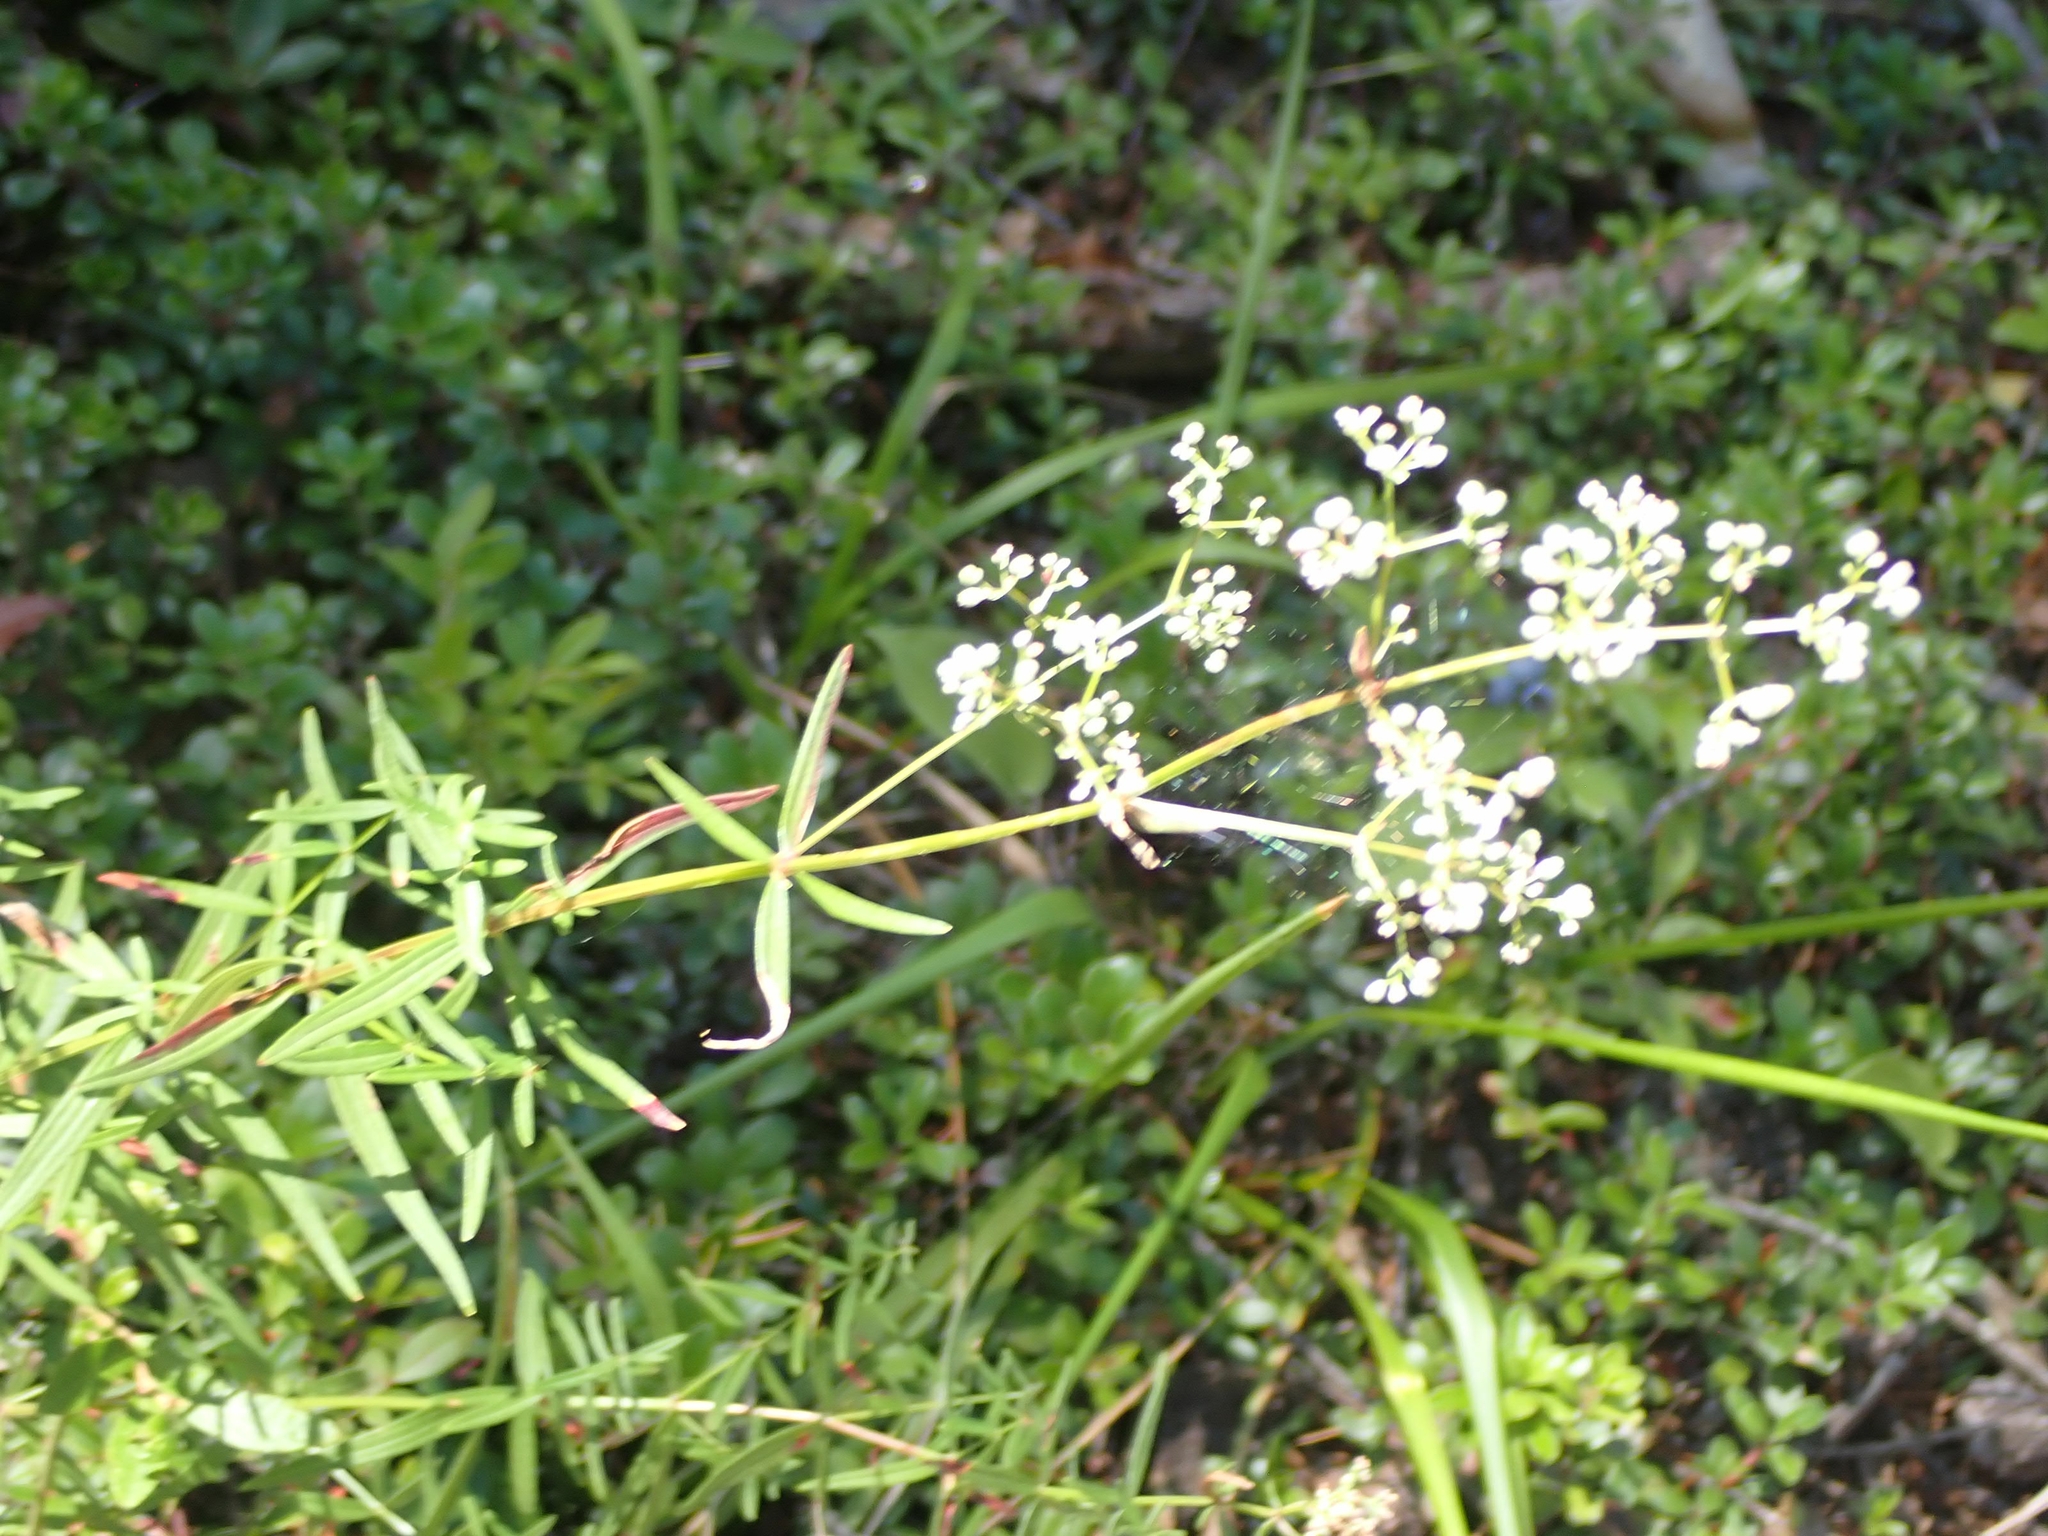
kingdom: Plantae
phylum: Tracheophyta
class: Magnoliopsida
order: Gentianales
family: Rubiaceae
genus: Galium
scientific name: Galium boreale
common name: Northern bedstraw
